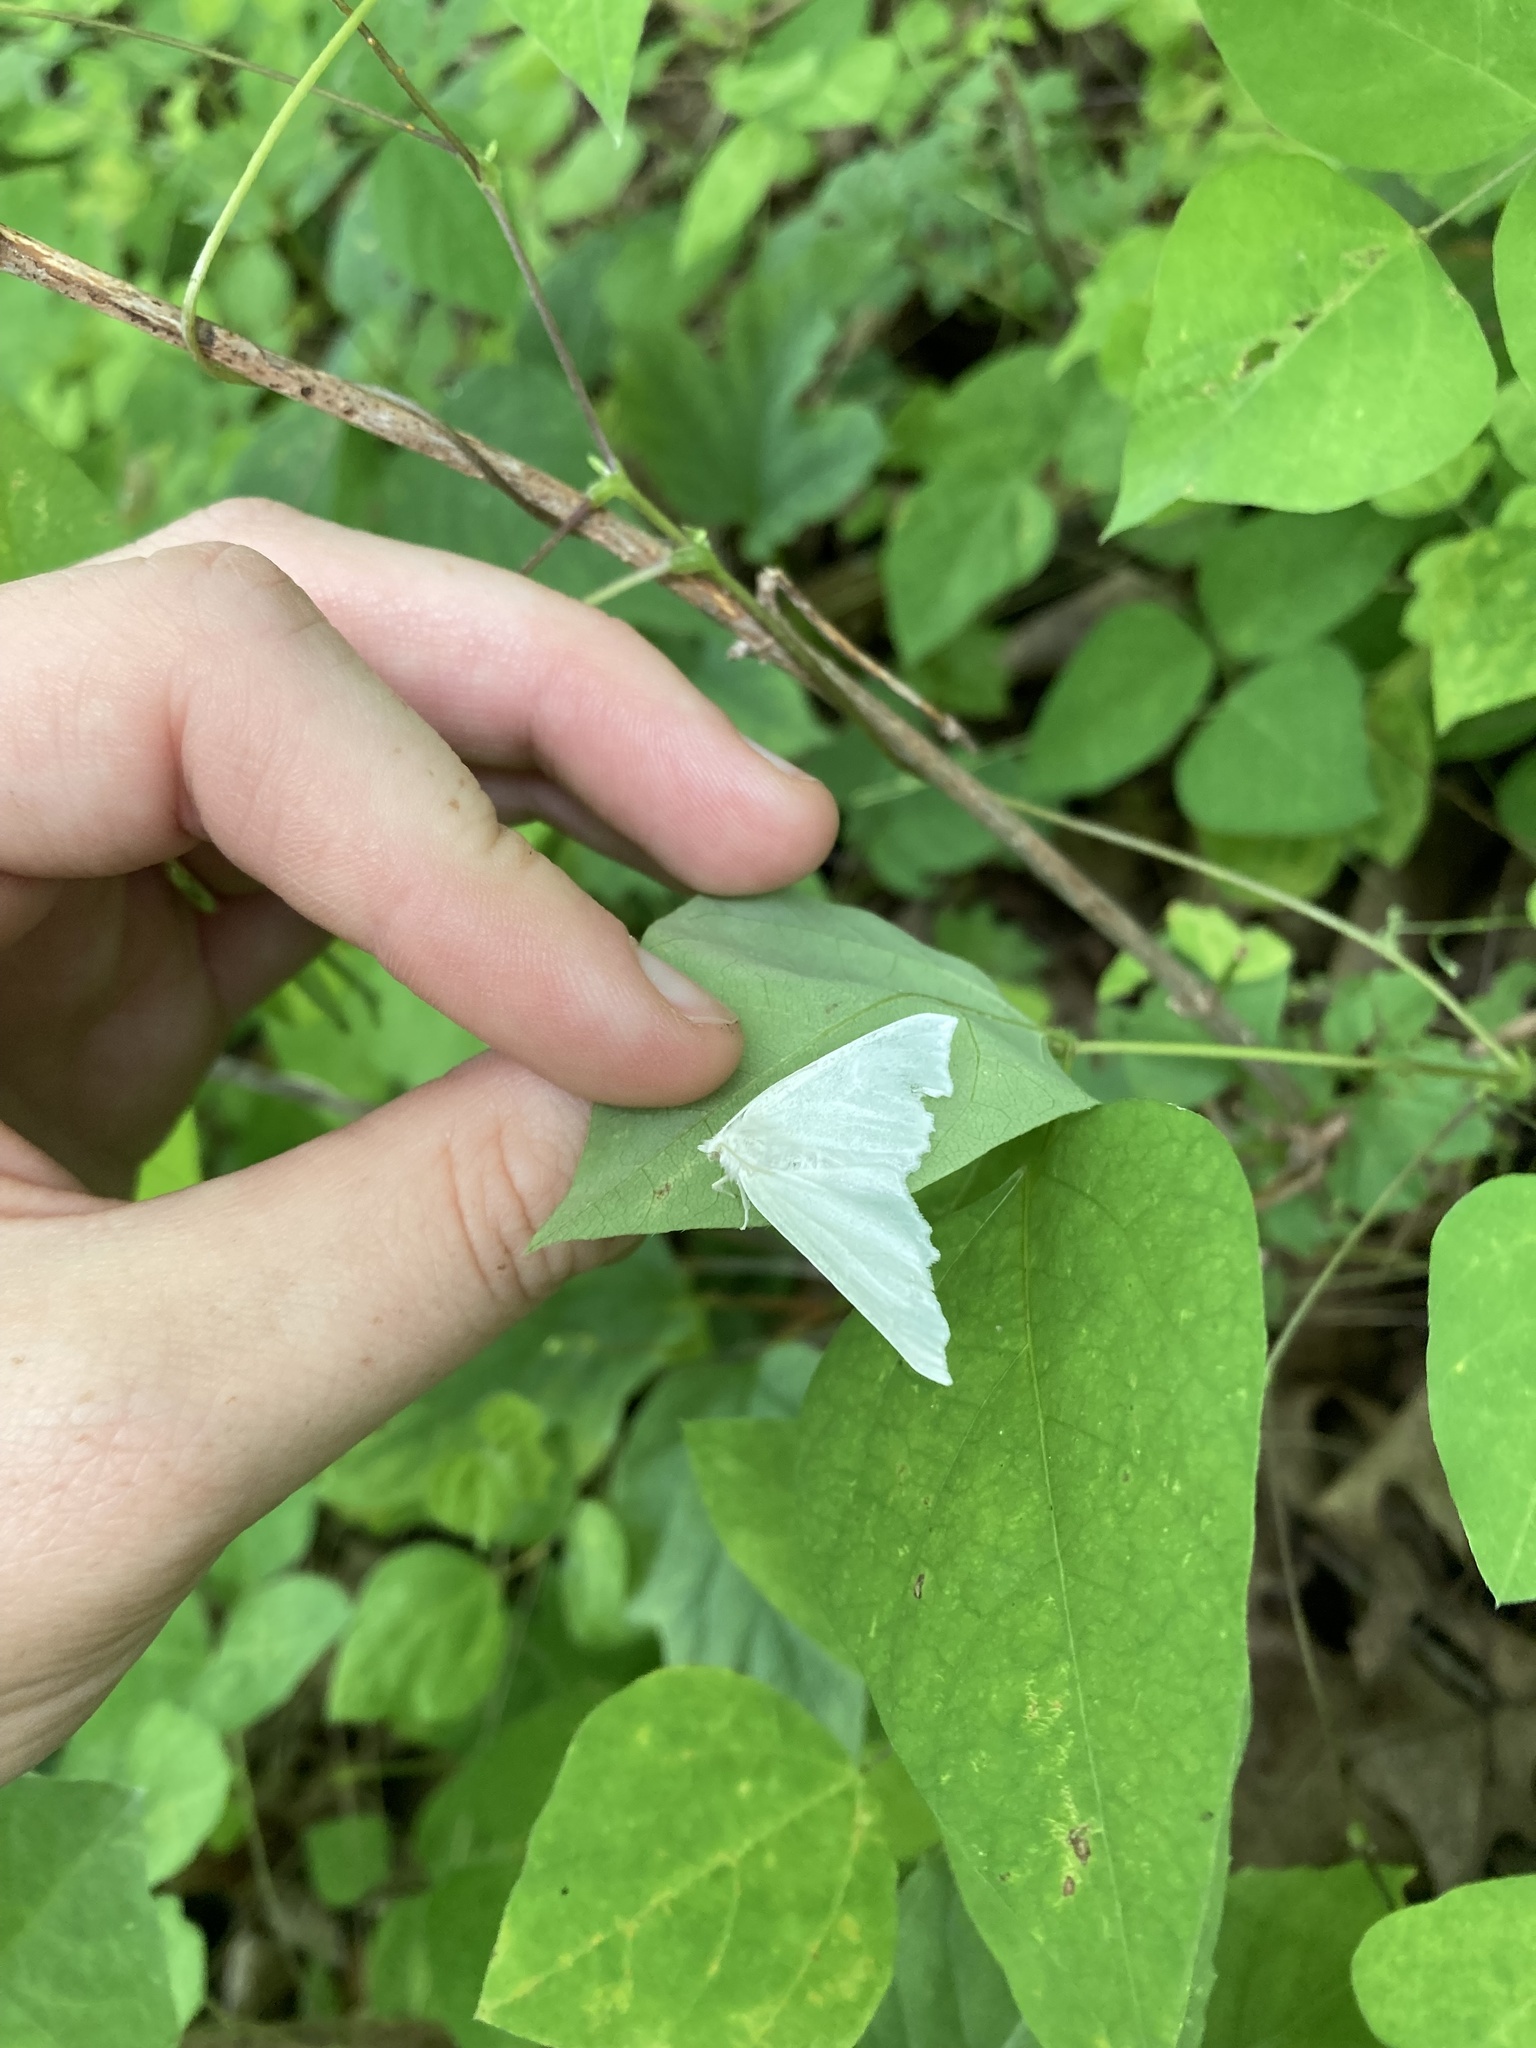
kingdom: Animalia
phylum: Arthropoda
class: Insecta
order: Lepidoptera
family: Geometridae
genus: Ennomos
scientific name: Ennomos subsignaria
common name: Elm spanworm
